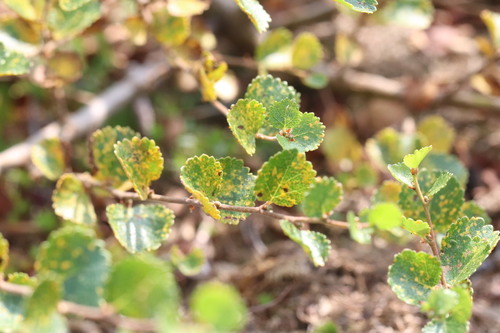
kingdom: Fungi
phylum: Basidiomycota
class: Pucciniomycetes
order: Pucciniales
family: Pucciniastraceae
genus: Melampsoridium
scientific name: Melampsoridium betulinum
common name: Birch rust
